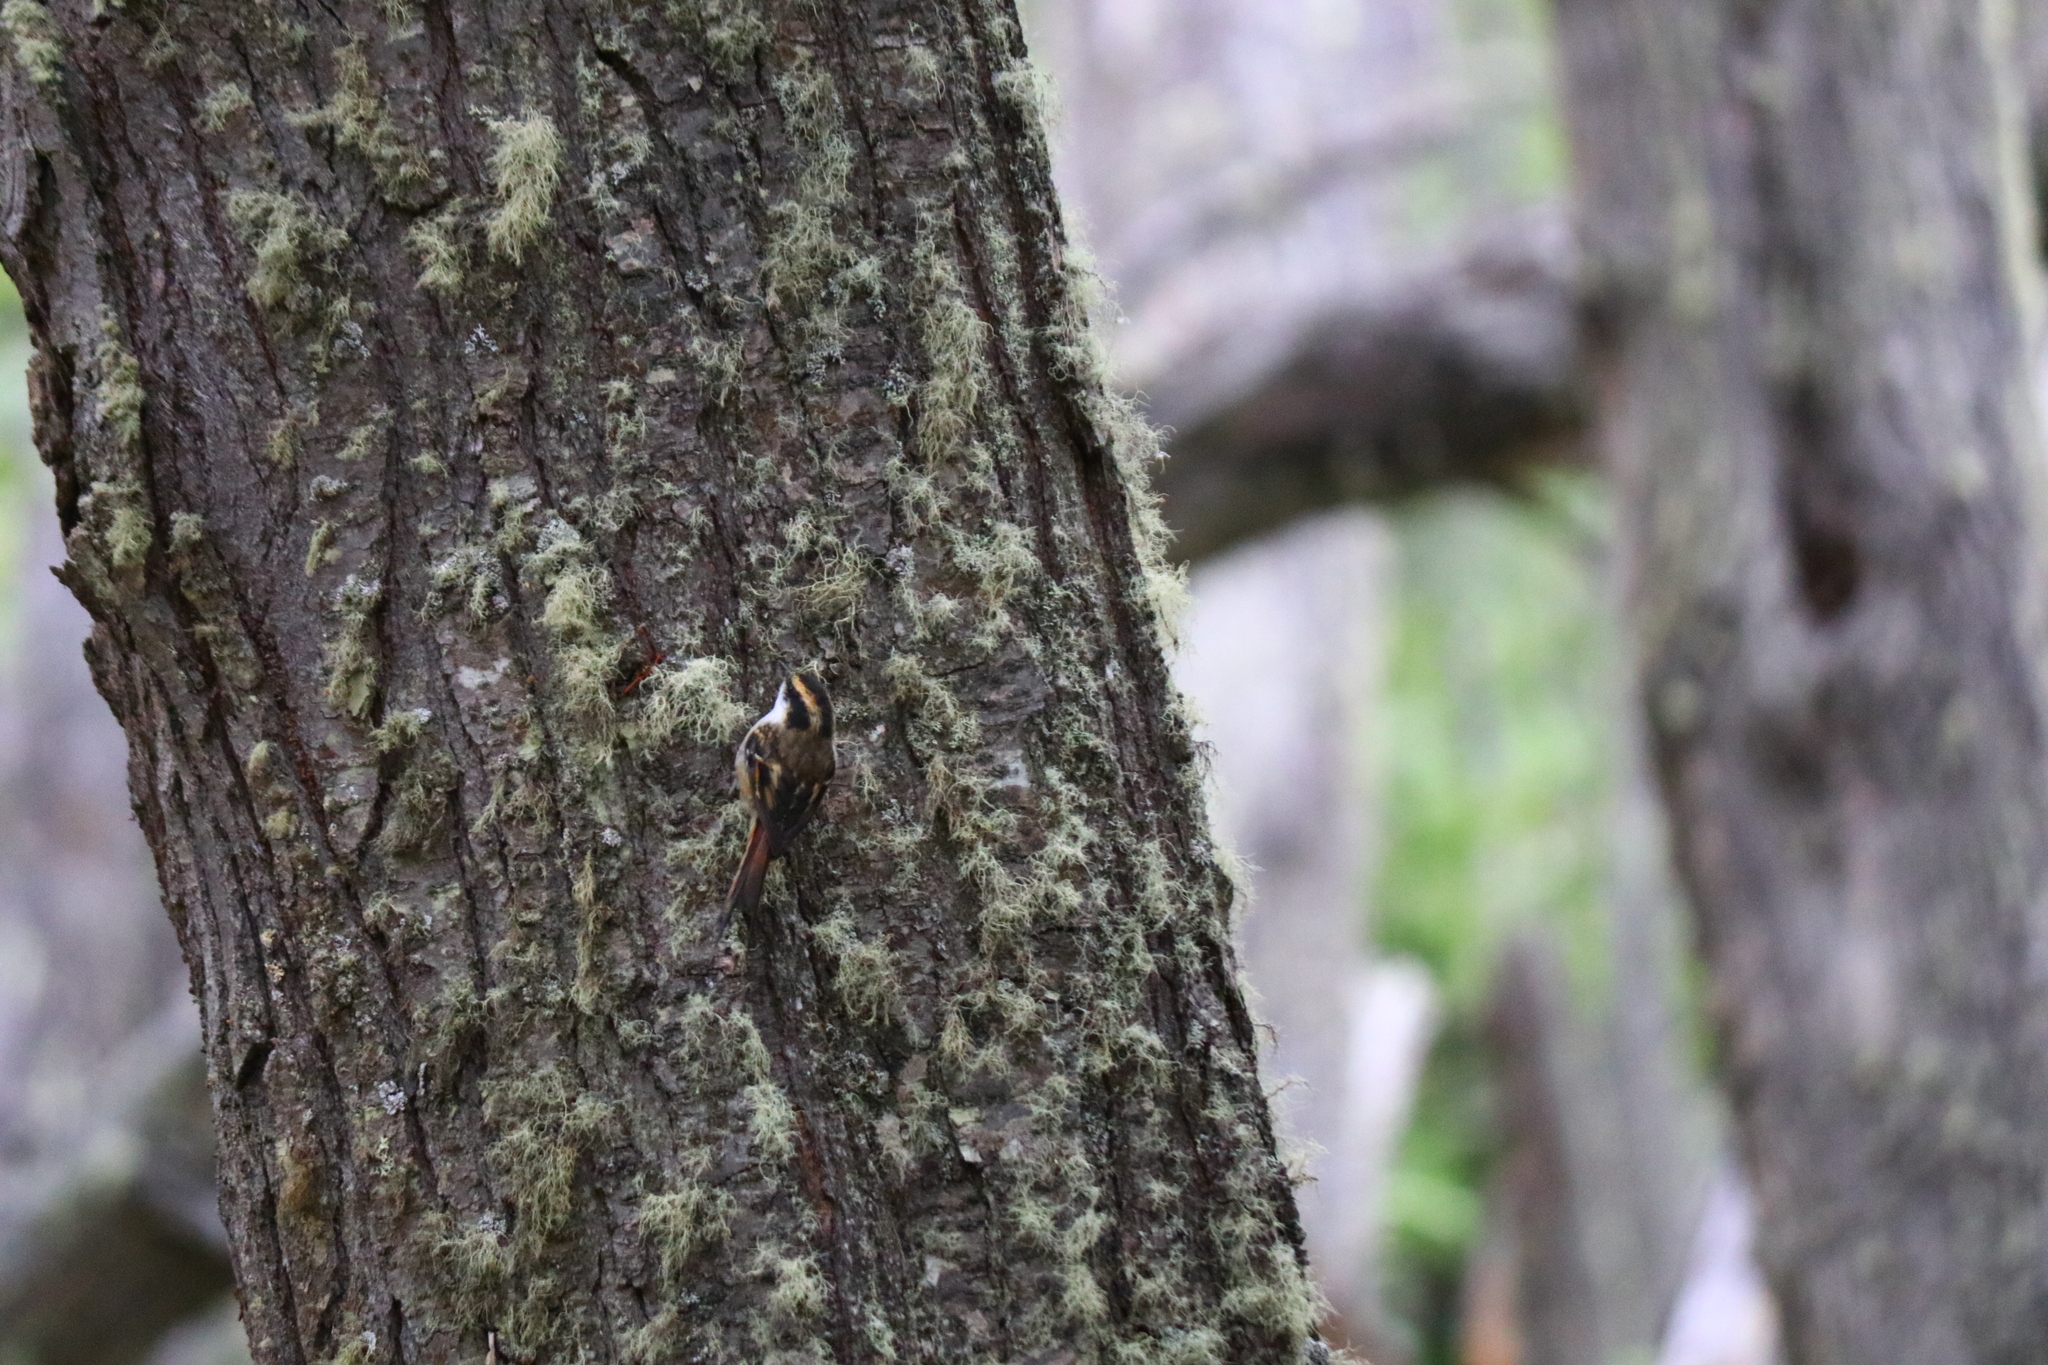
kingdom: Animalia
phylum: Chordata
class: Aves
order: Passeriformes
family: Furnariidae
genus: Aphrastura
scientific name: Aphrastura spinicauda
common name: Thorn-tailed rayadito
